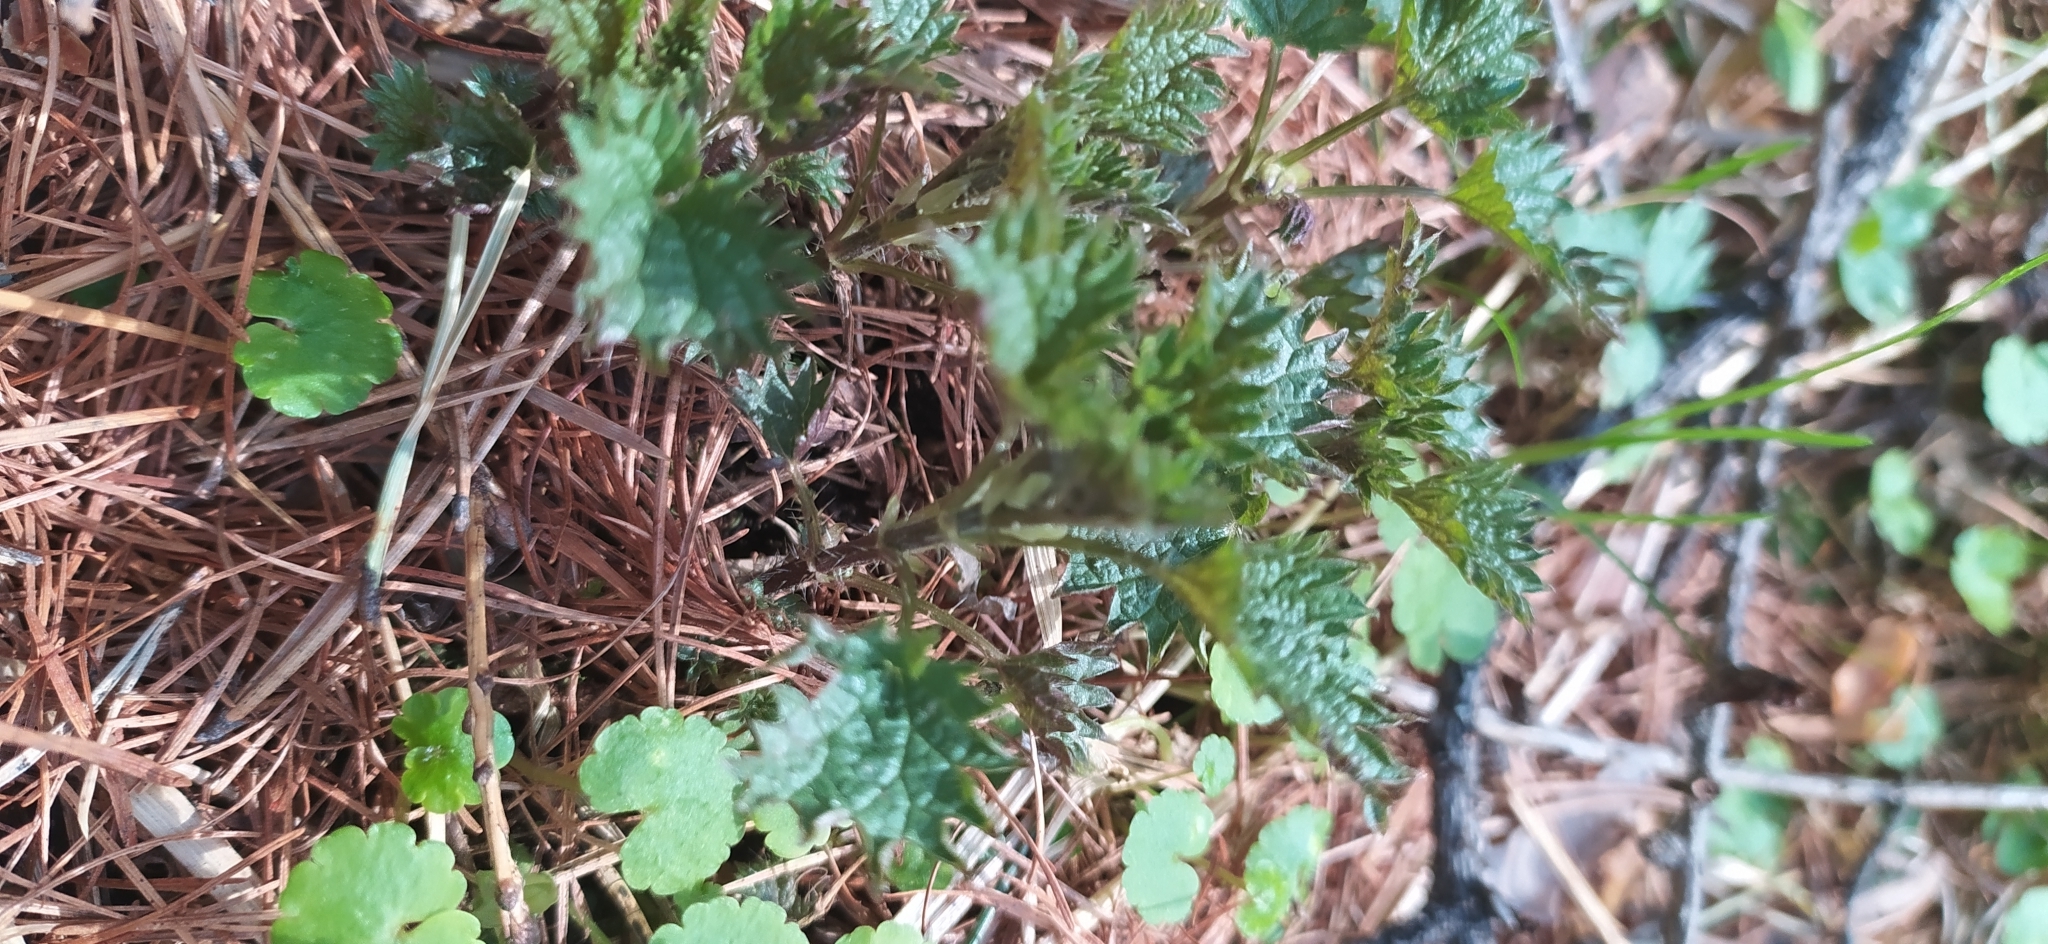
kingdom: Plantae
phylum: Tracheophyta
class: Magnoliopsida
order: Rosales
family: Urticaceae
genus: Urtica
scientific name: Urtica dioica
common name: Common nettle
